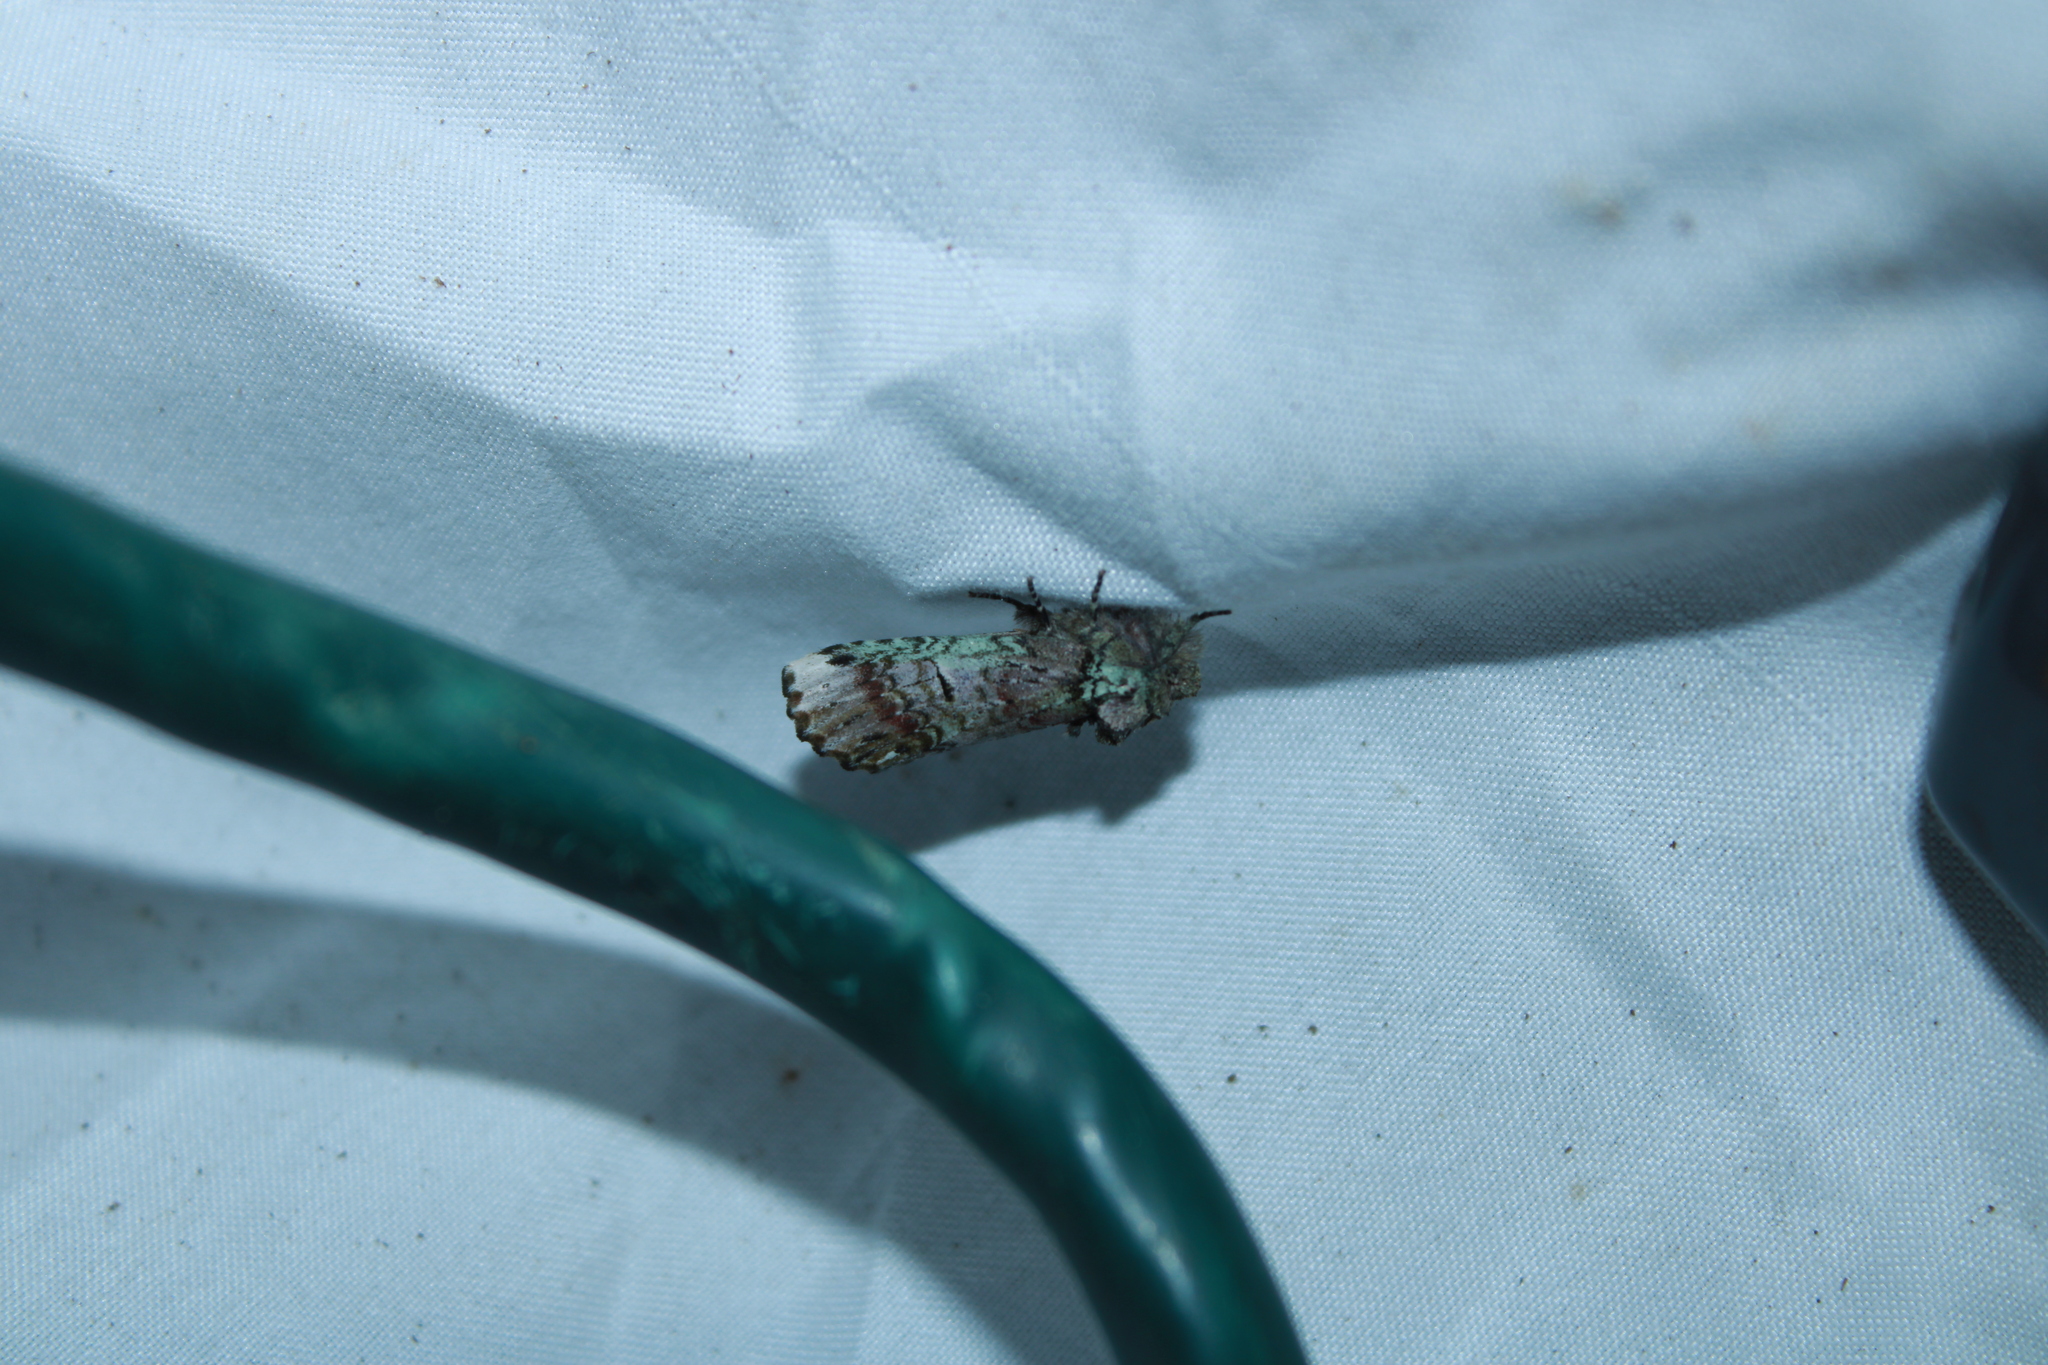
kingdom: Animalia
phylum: Arthropoda
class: Insecta
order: Lepidoptera
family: Notodontidae
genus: Schizura
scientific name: Schizura
